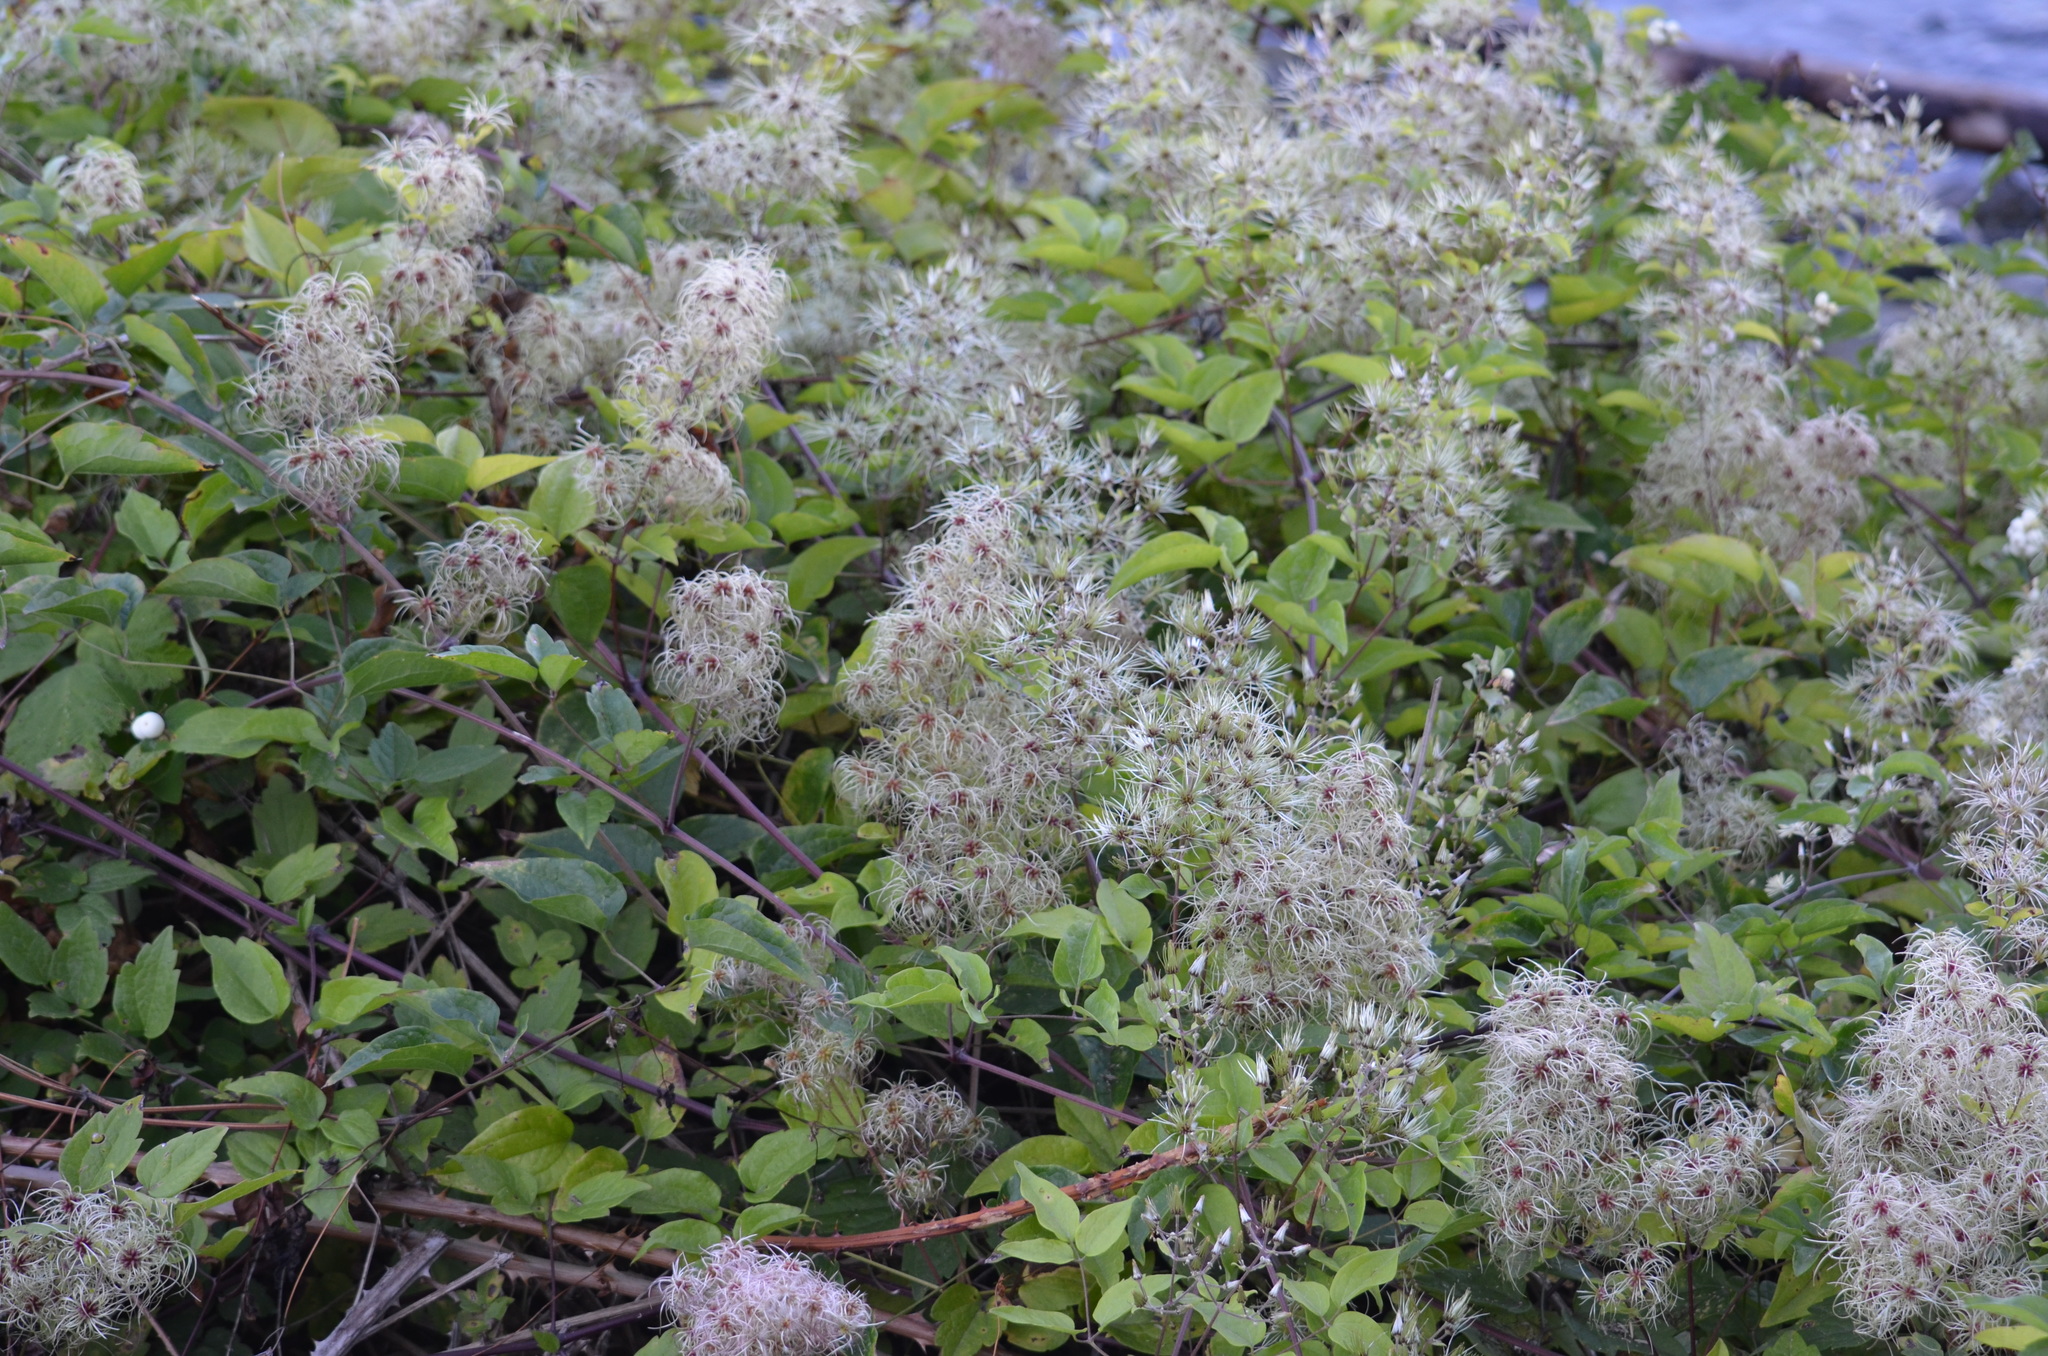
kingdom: Plantae
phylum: Tracheophyta
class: Magnoliopsida
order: Ranunculales
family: Ranunculaceae
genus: Clematis
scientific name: Clematis vitalba
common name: Evergreen clematis
